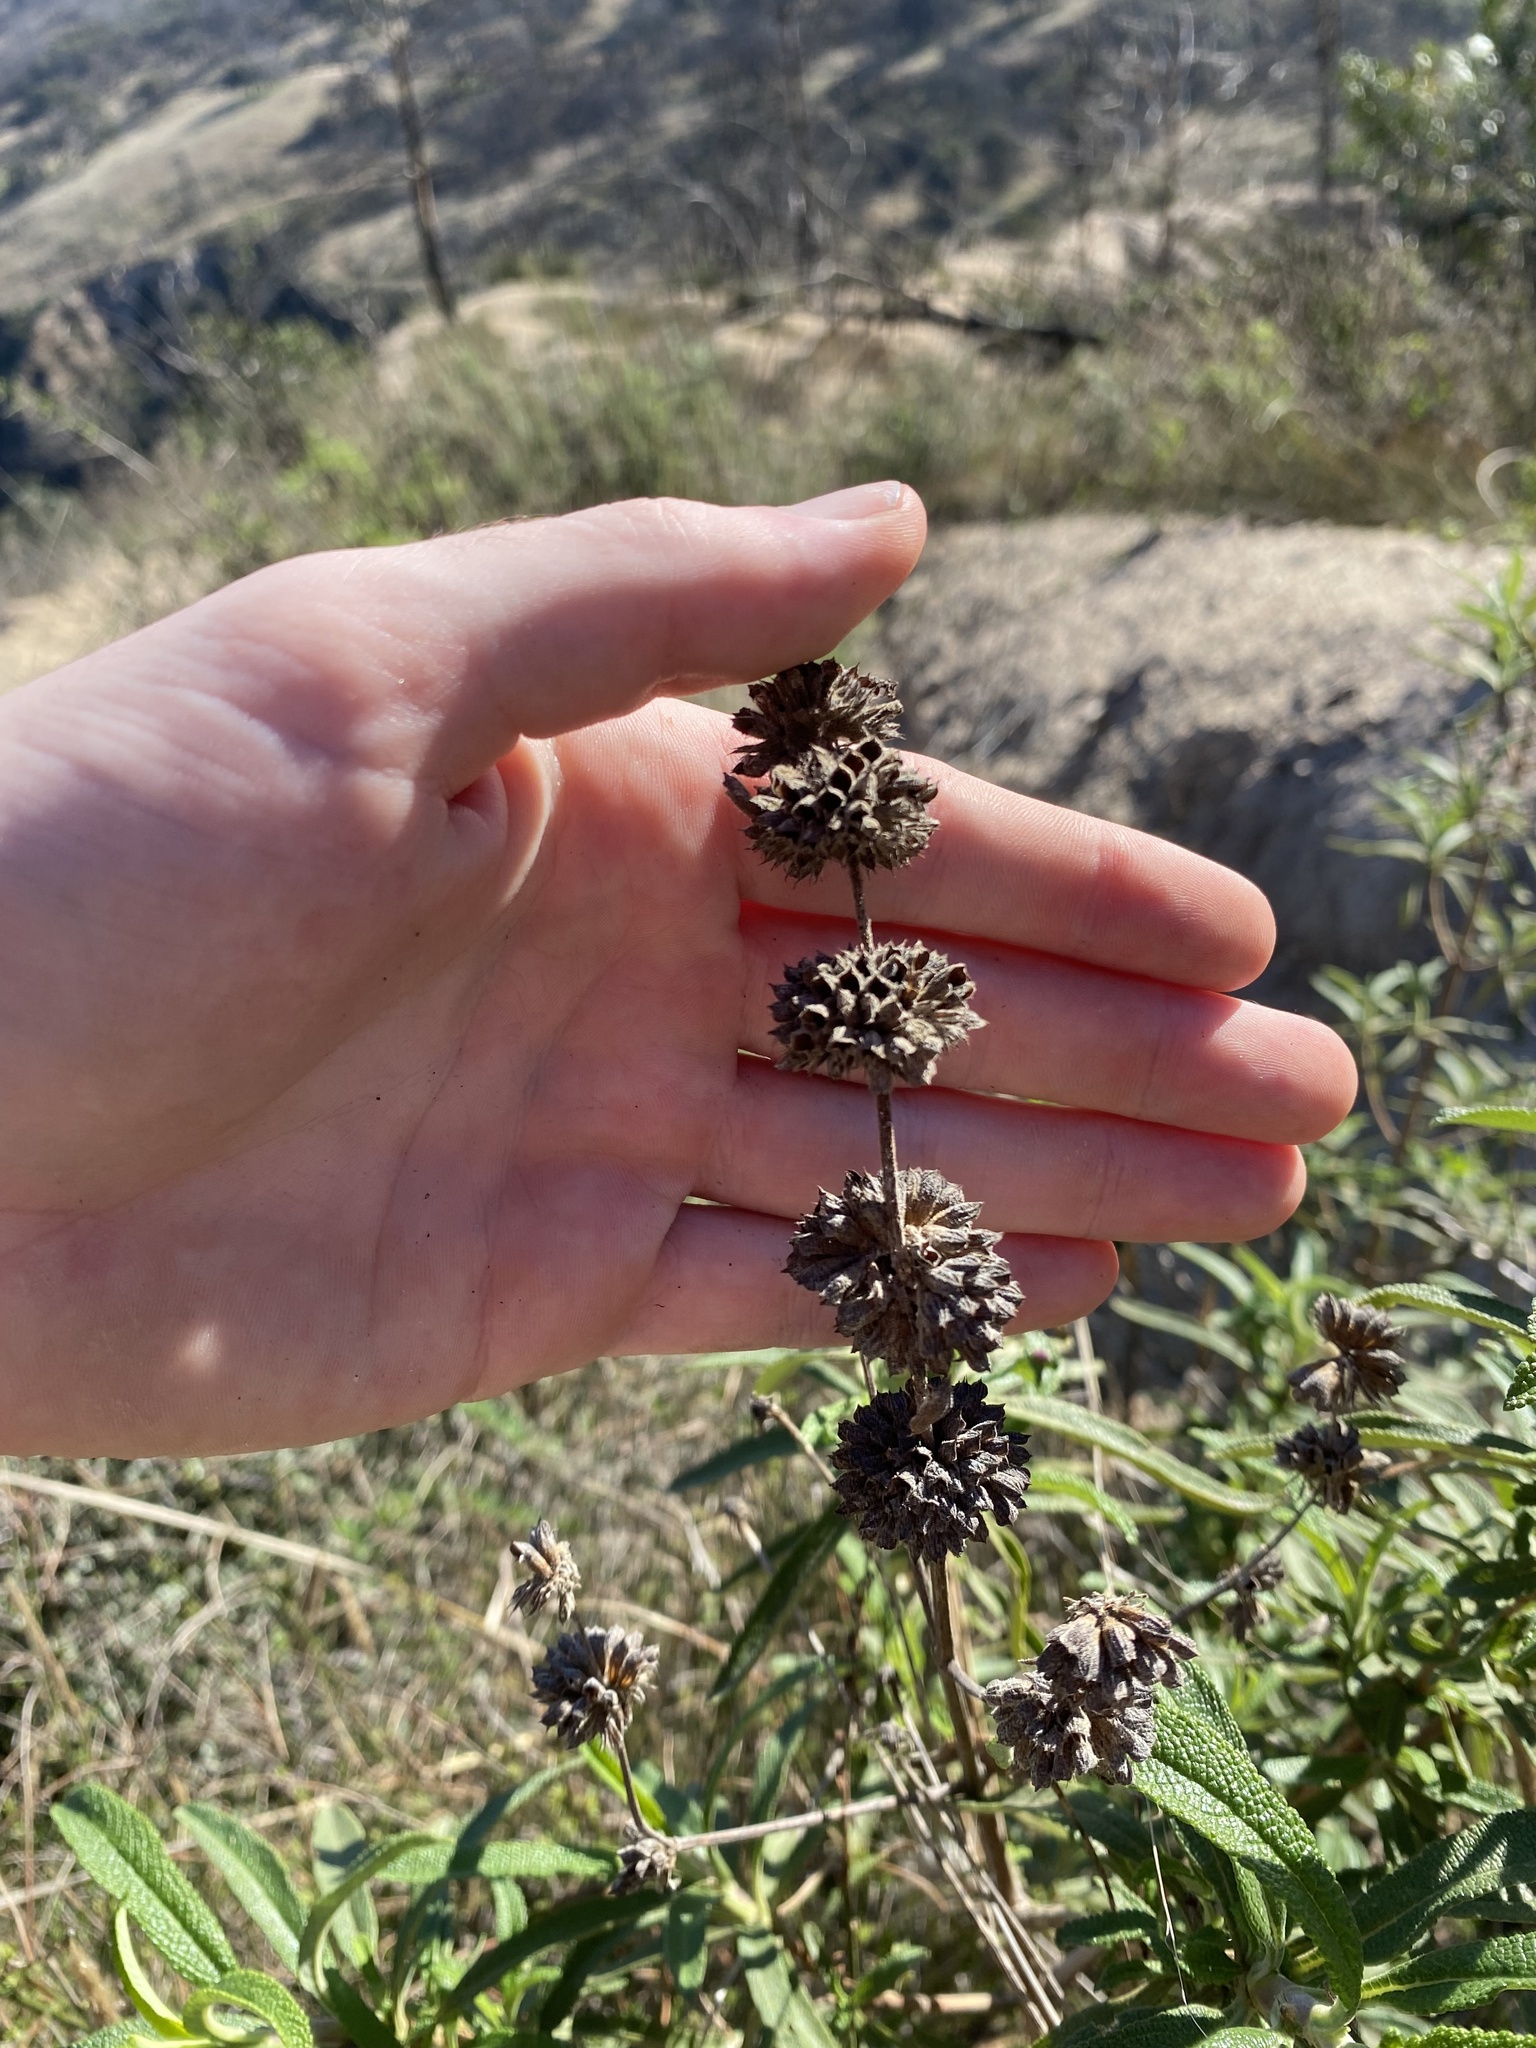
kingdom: Plantae
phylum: Tracheophyta
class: Magnoliopsida
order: Lamiales
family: Lamiaceae
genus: Salvia
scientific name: Salvia mellifera
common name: Black sage
